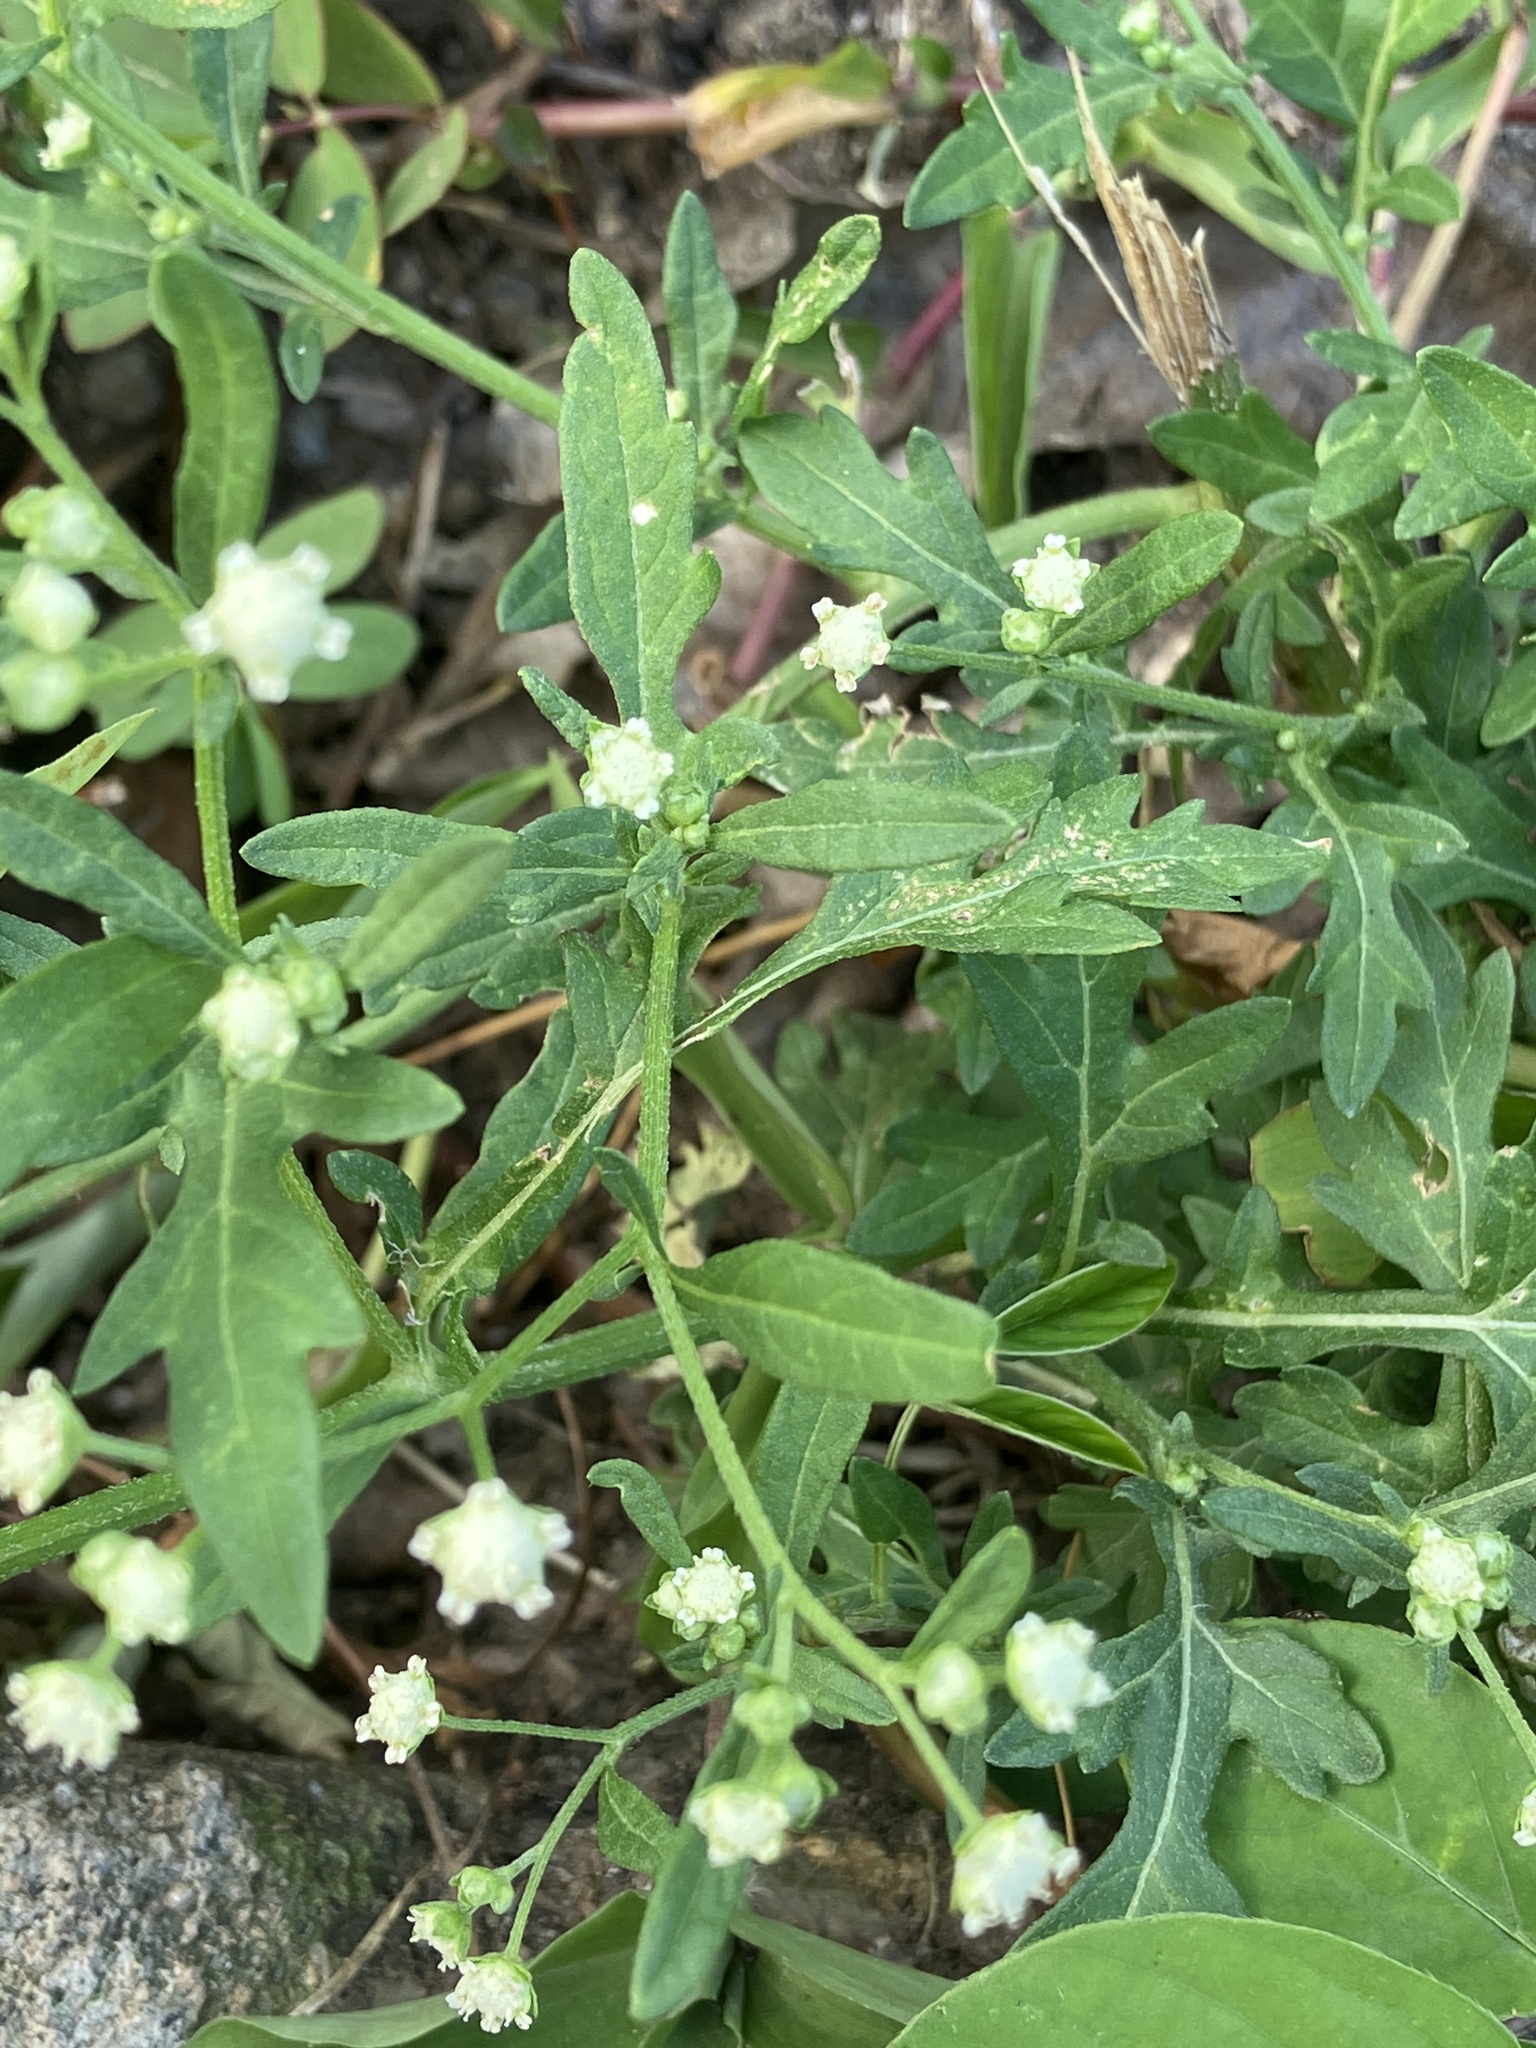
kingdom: Plantae
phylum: Tracheophyta
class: Magnoliopsida
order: Asterales
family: Asteraceae
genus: Parthenium
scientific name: Parthenium hysterophorus
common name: Santa maria feverfew
